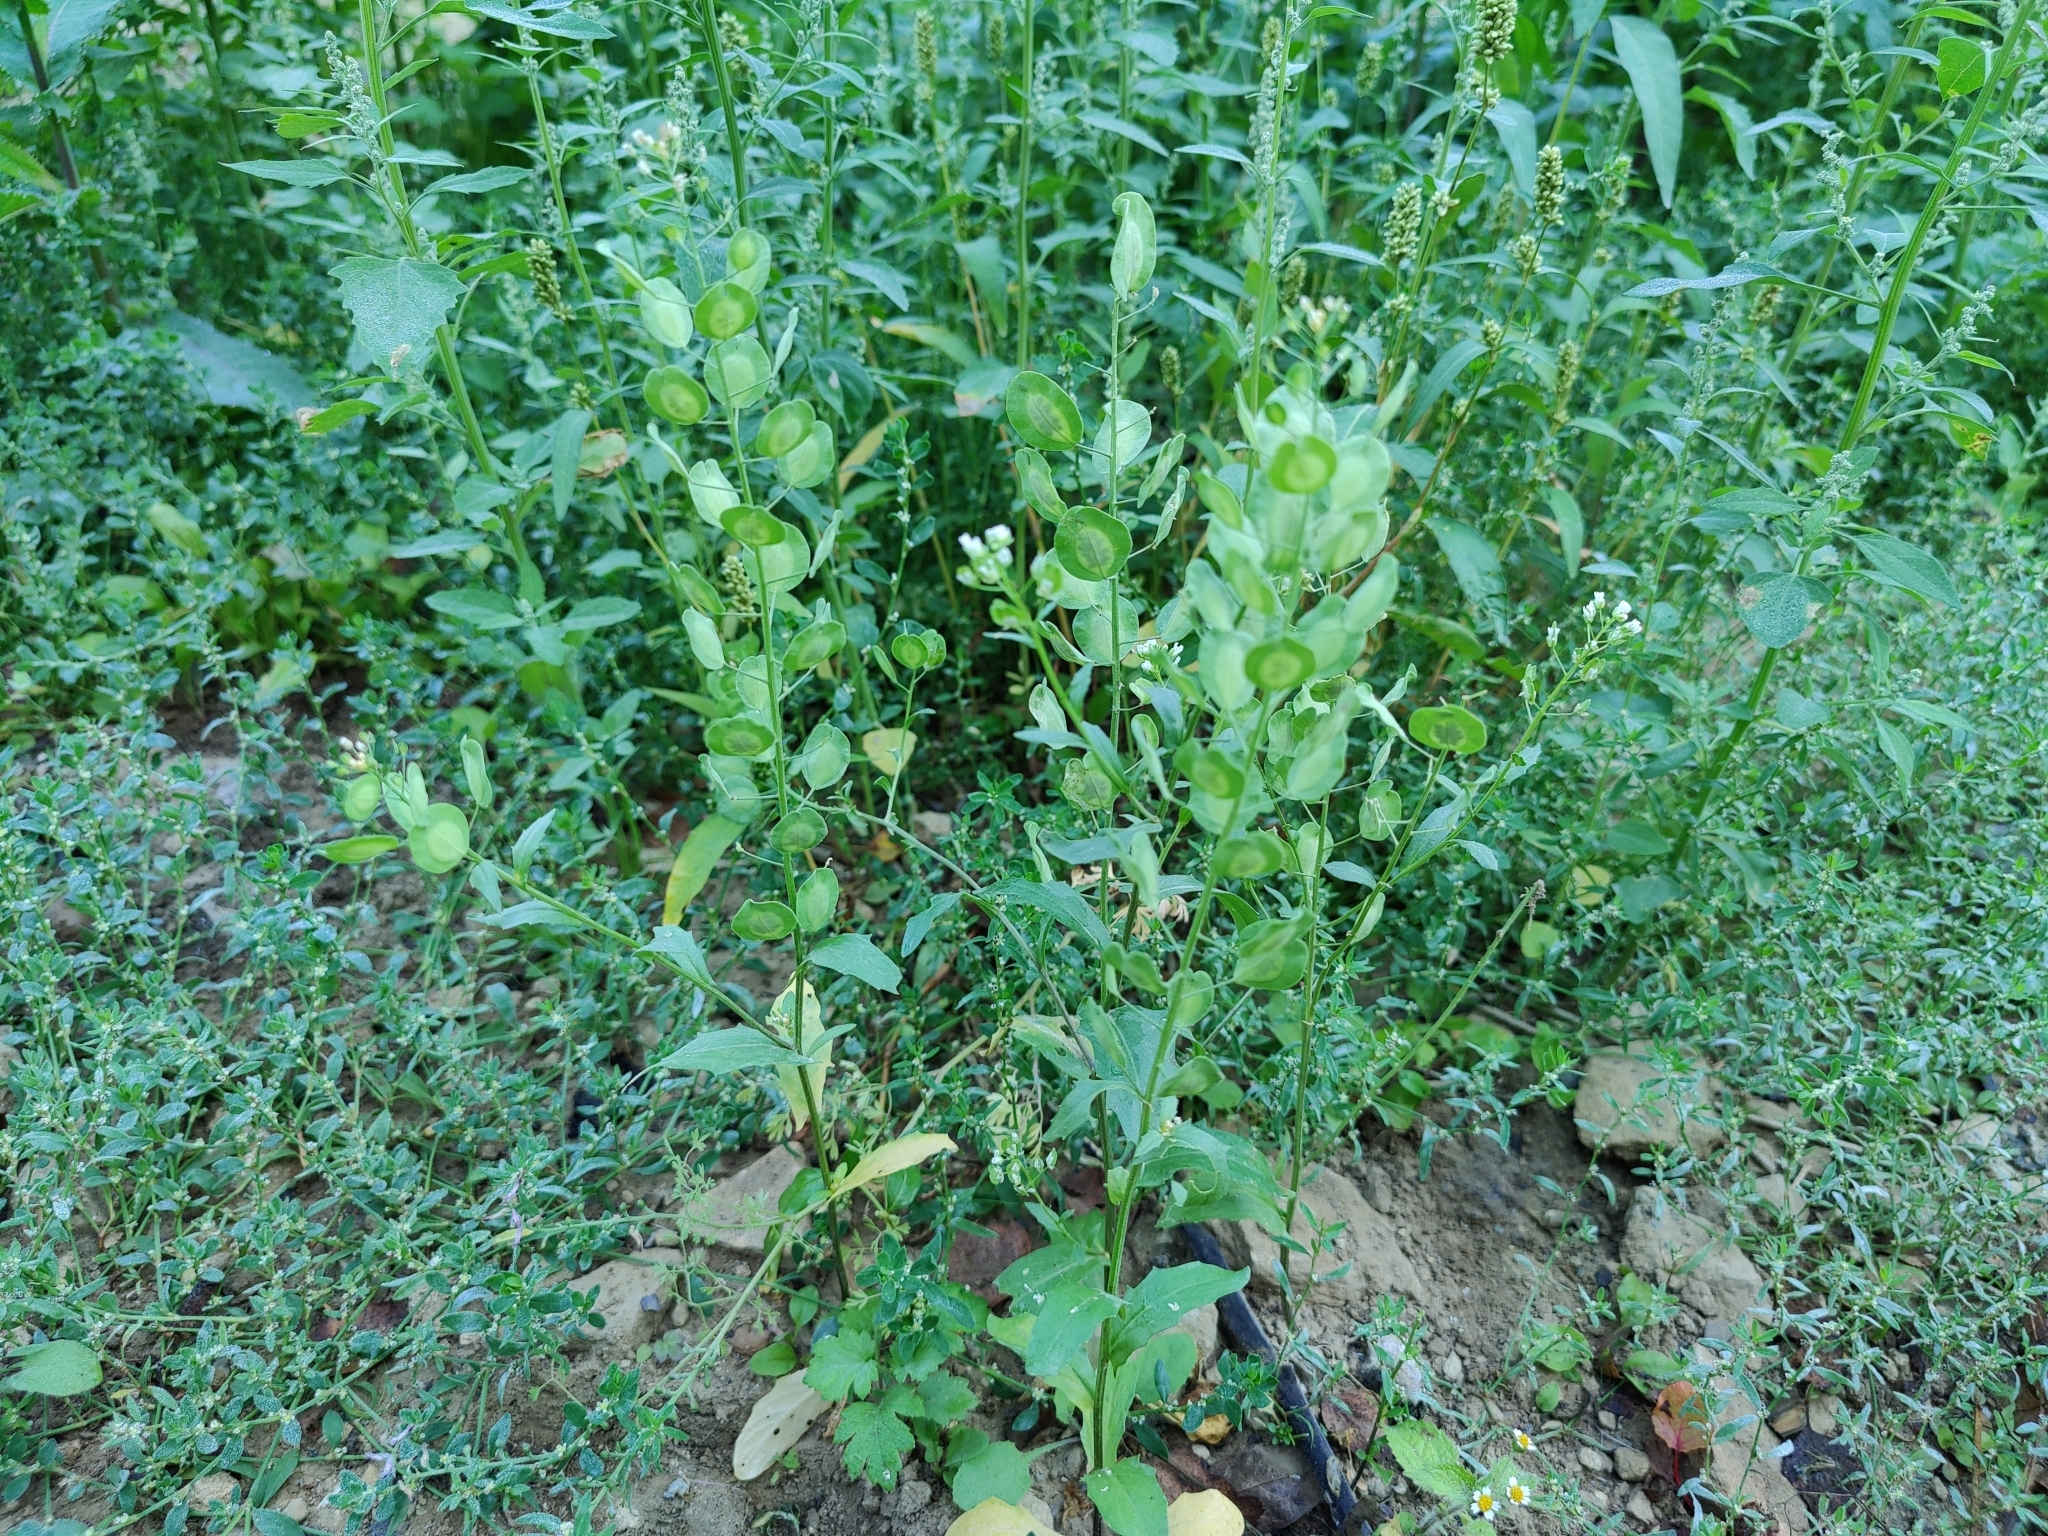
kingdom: Plantae
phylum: Tracheophyta
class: Magnoliopsida
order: Brassicales
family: Brassicaceae
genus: Thlaspi
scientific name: Thlaspi arvense
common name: Field pennycress
